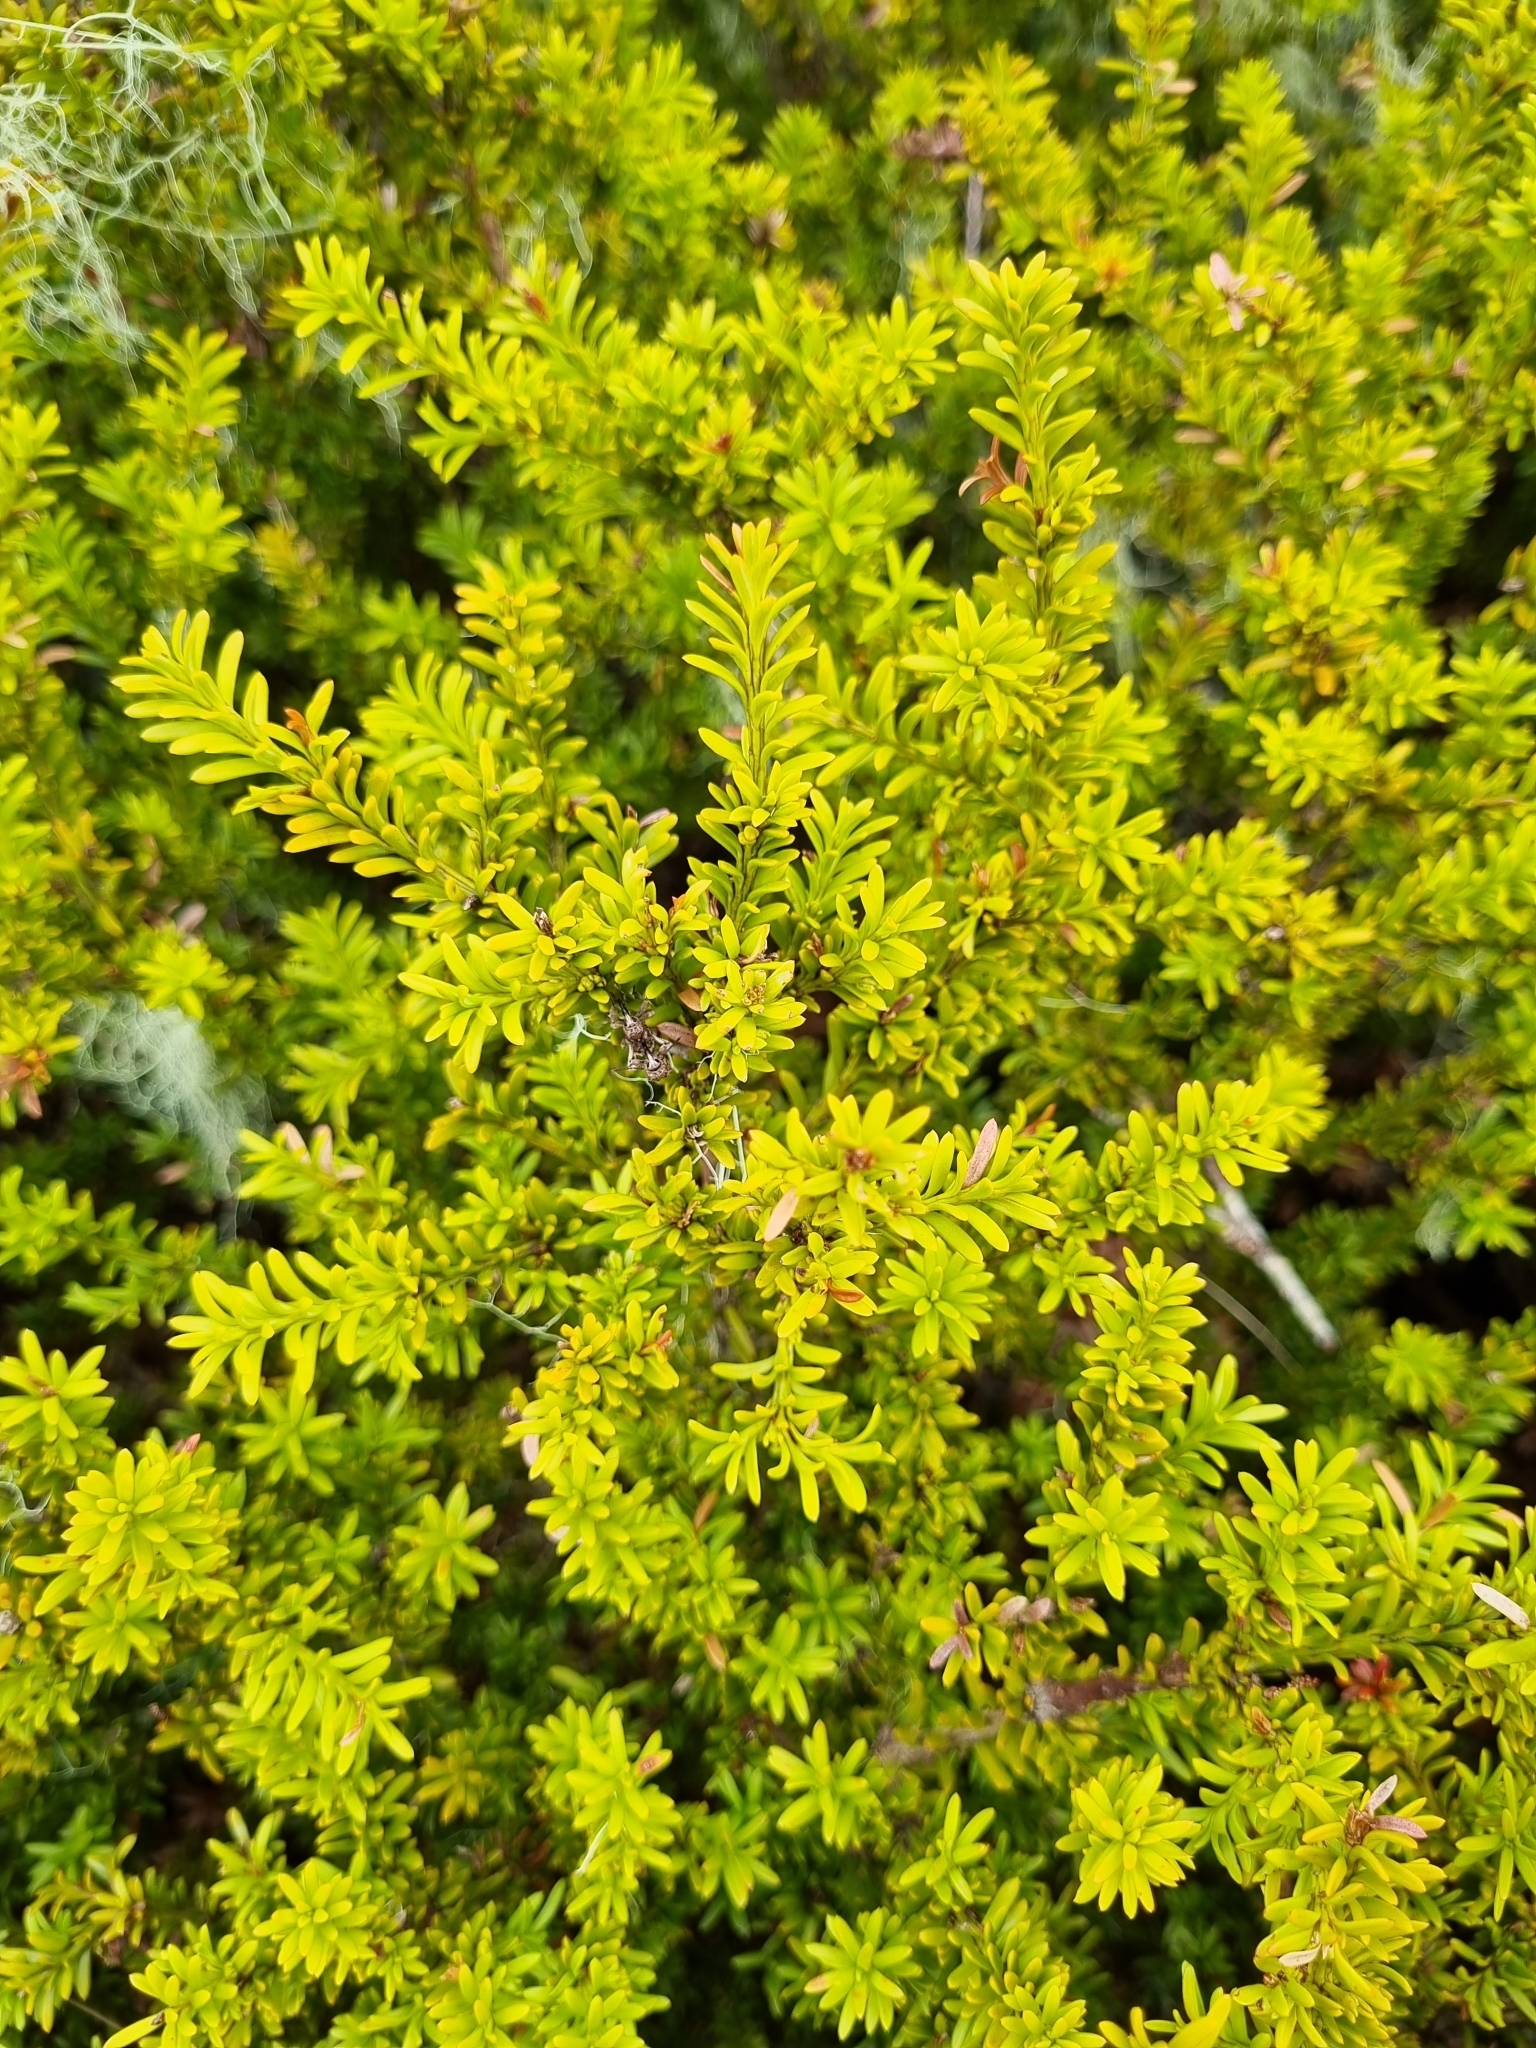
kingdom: Plantae
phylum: Tracheophyta
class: Pinopsida
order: Pinales
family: Podocarpaceae
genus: Podocarpus
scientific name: Podocarpus nivalis
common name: Alpine totara
